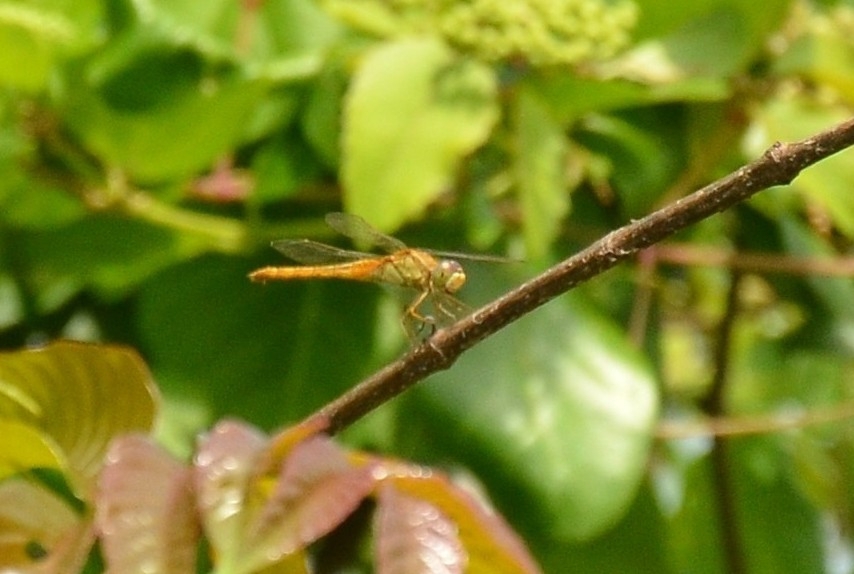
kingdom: Animalia
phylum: Arthropoda
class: Insecta
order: Odonata
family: Libellulidae
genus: Crocothemis
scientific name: Crocothemis servilia
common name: Scarlet skimmer
